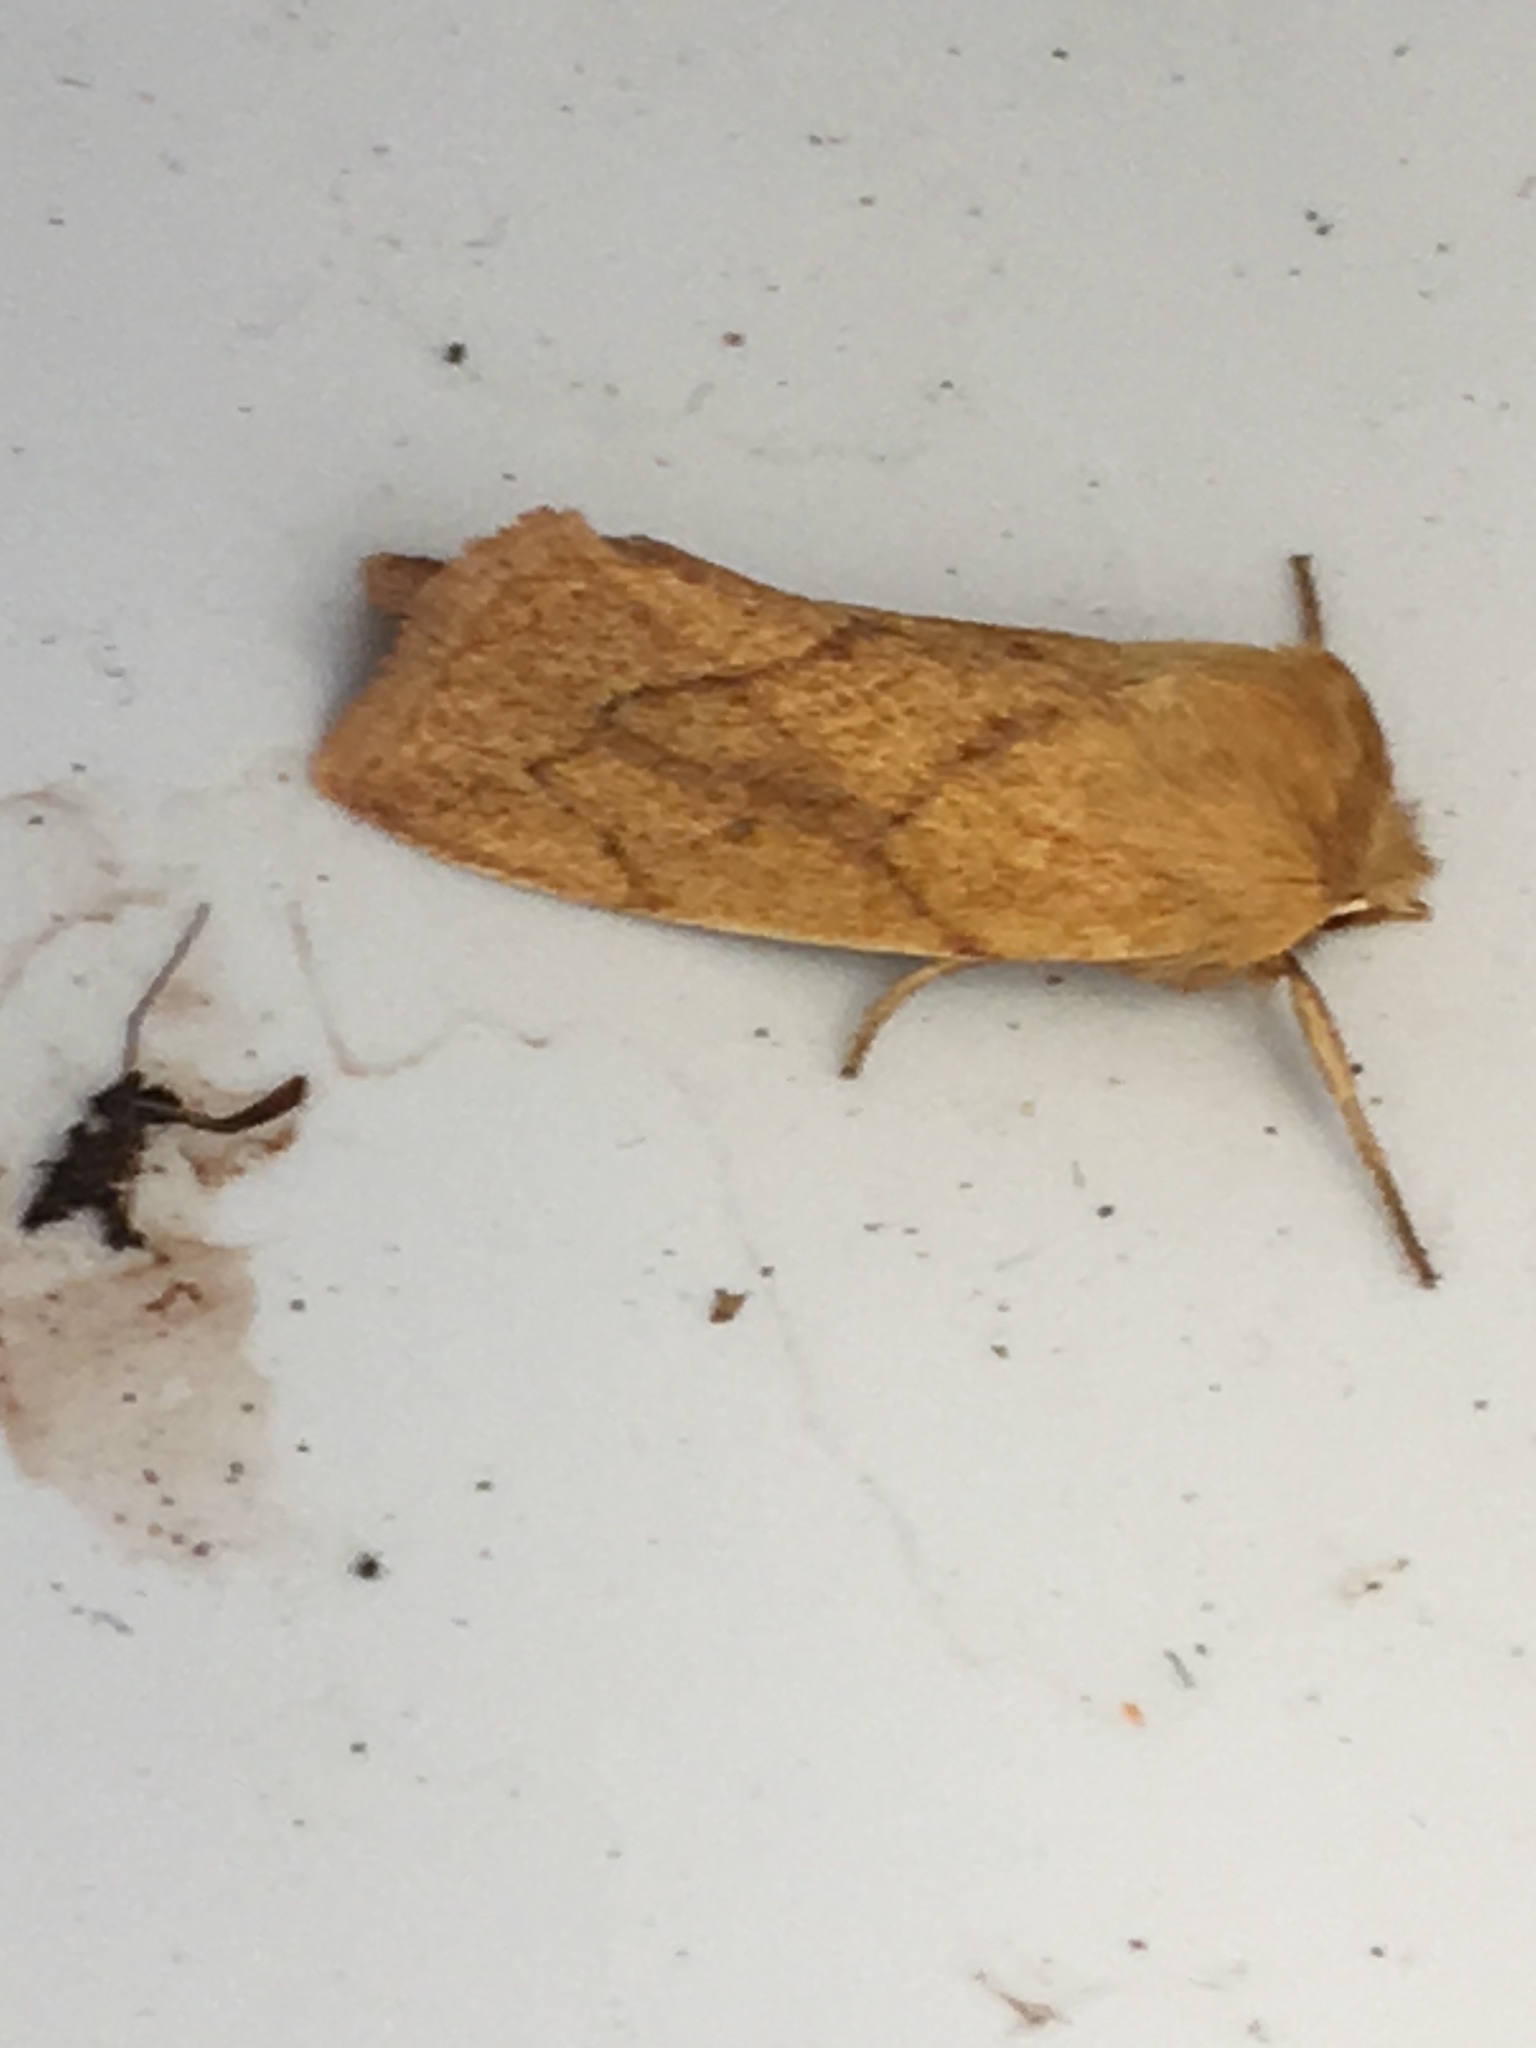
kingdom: Animalia
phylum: Arthropoda
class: Insecta
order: Lepidoptera
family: Noctuidae
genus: Zosteropoda
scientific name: Zosteropoda hirtipes
